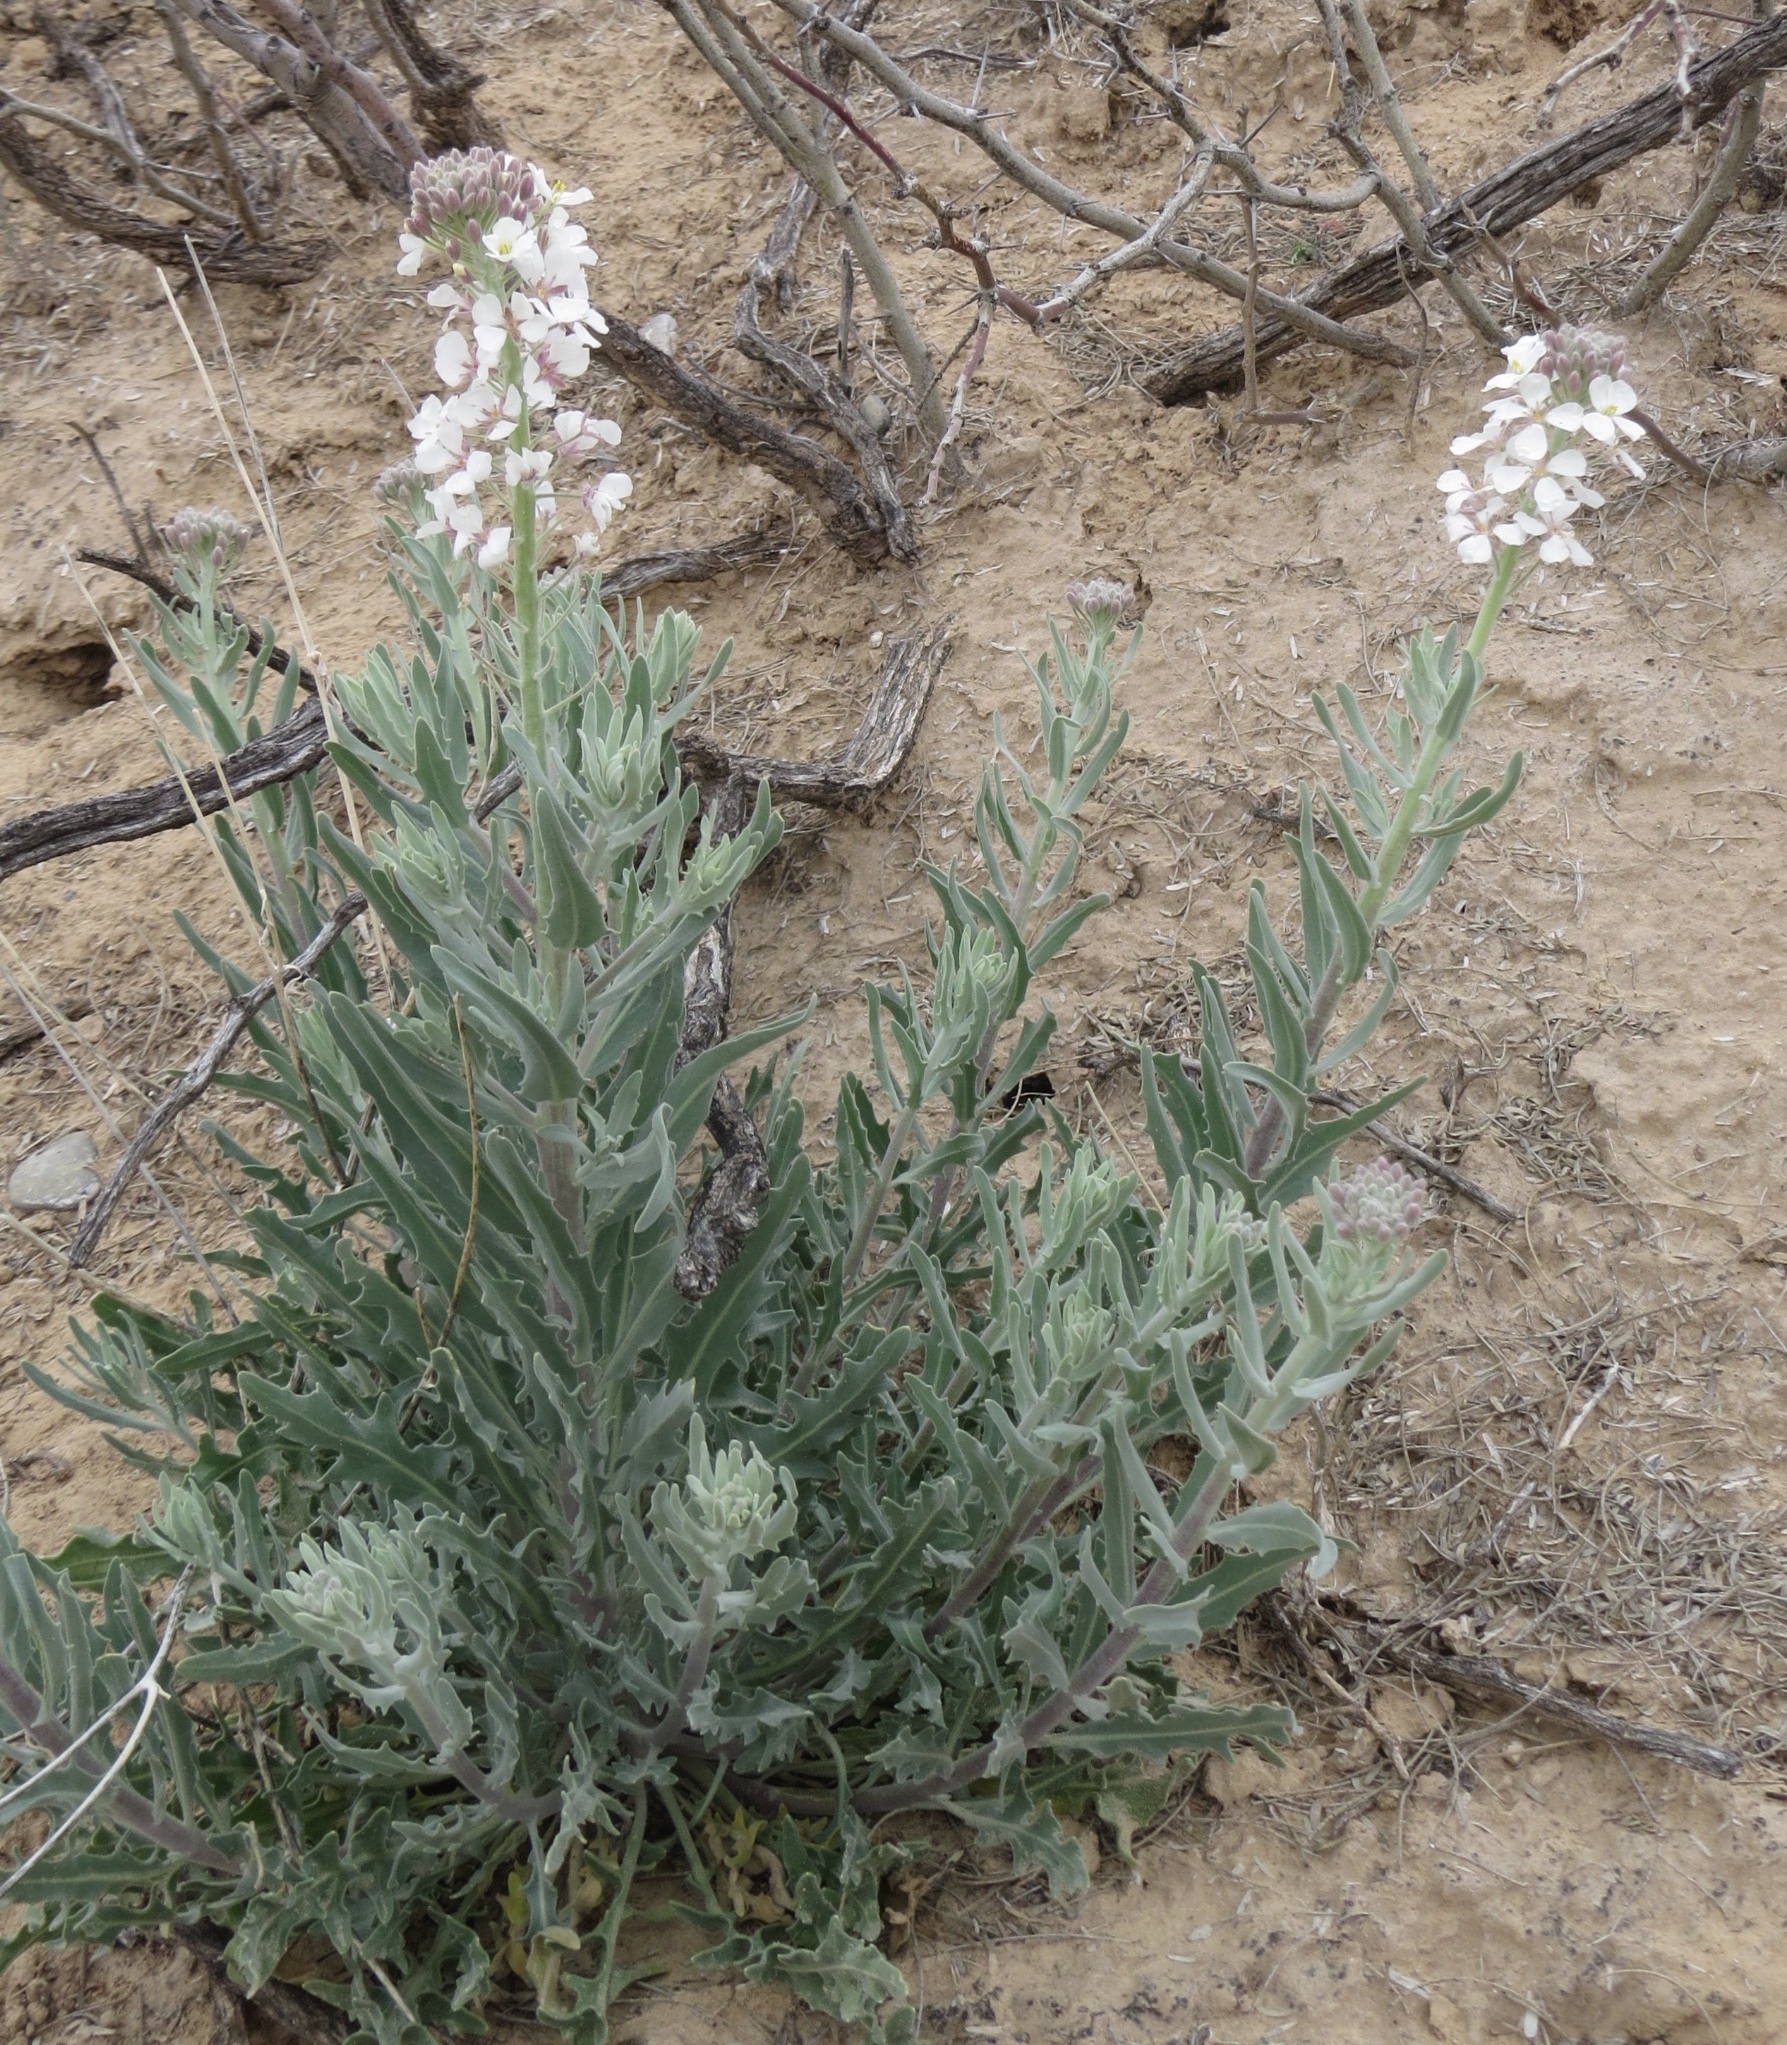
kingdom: Plantae
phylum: Tracheophyta
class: Magnoliopsida
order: Brassicales
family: Brassicaceae
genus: Dimorphocarpa
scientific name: Dimorphocarpa wislizenii
